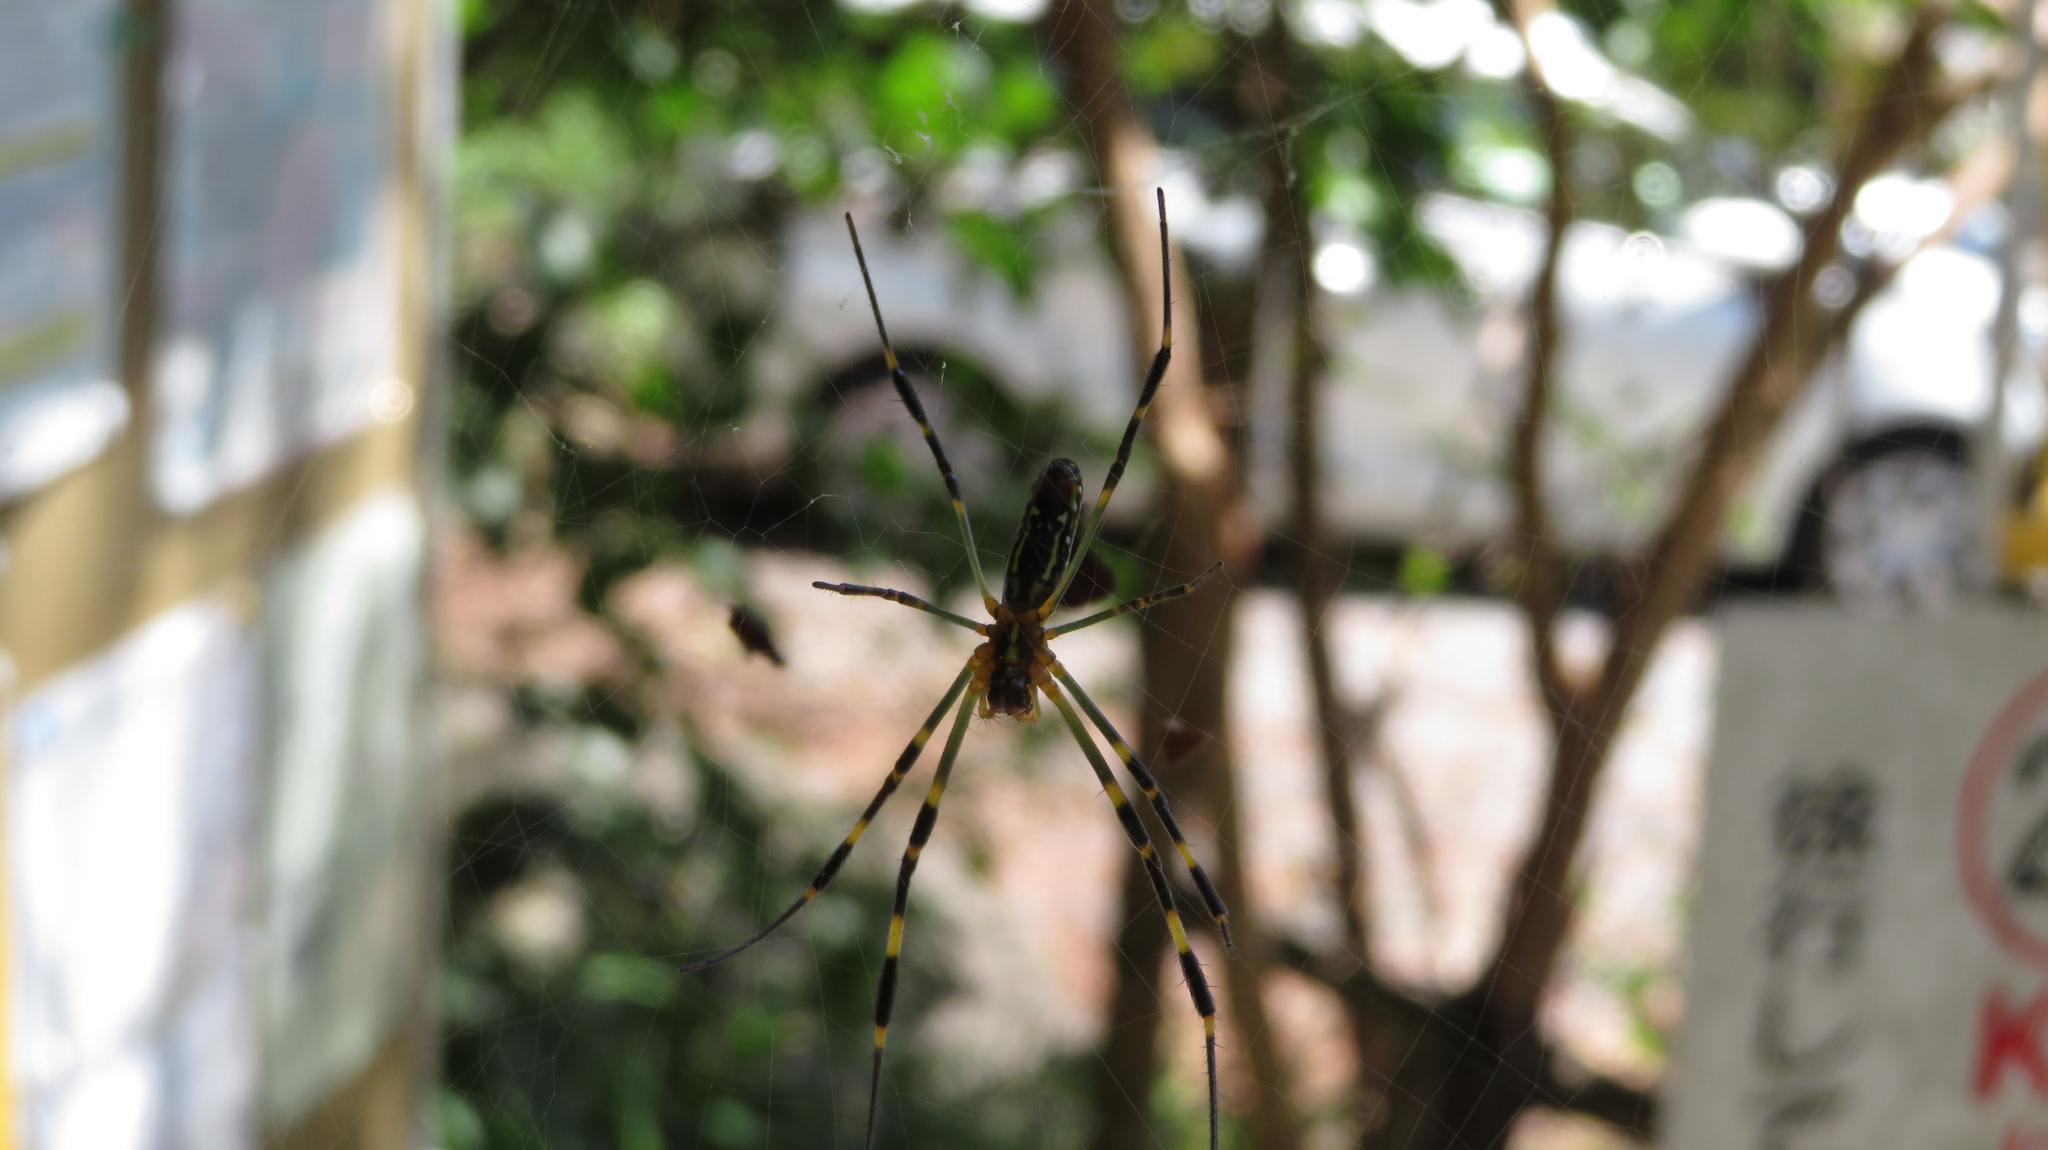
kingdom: Animalia
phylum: Arthropoda
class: Arachnida
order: Araneae
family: Araneidae
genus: Trichonephila
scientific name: Trichonephila clavata
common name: Jorō spider
